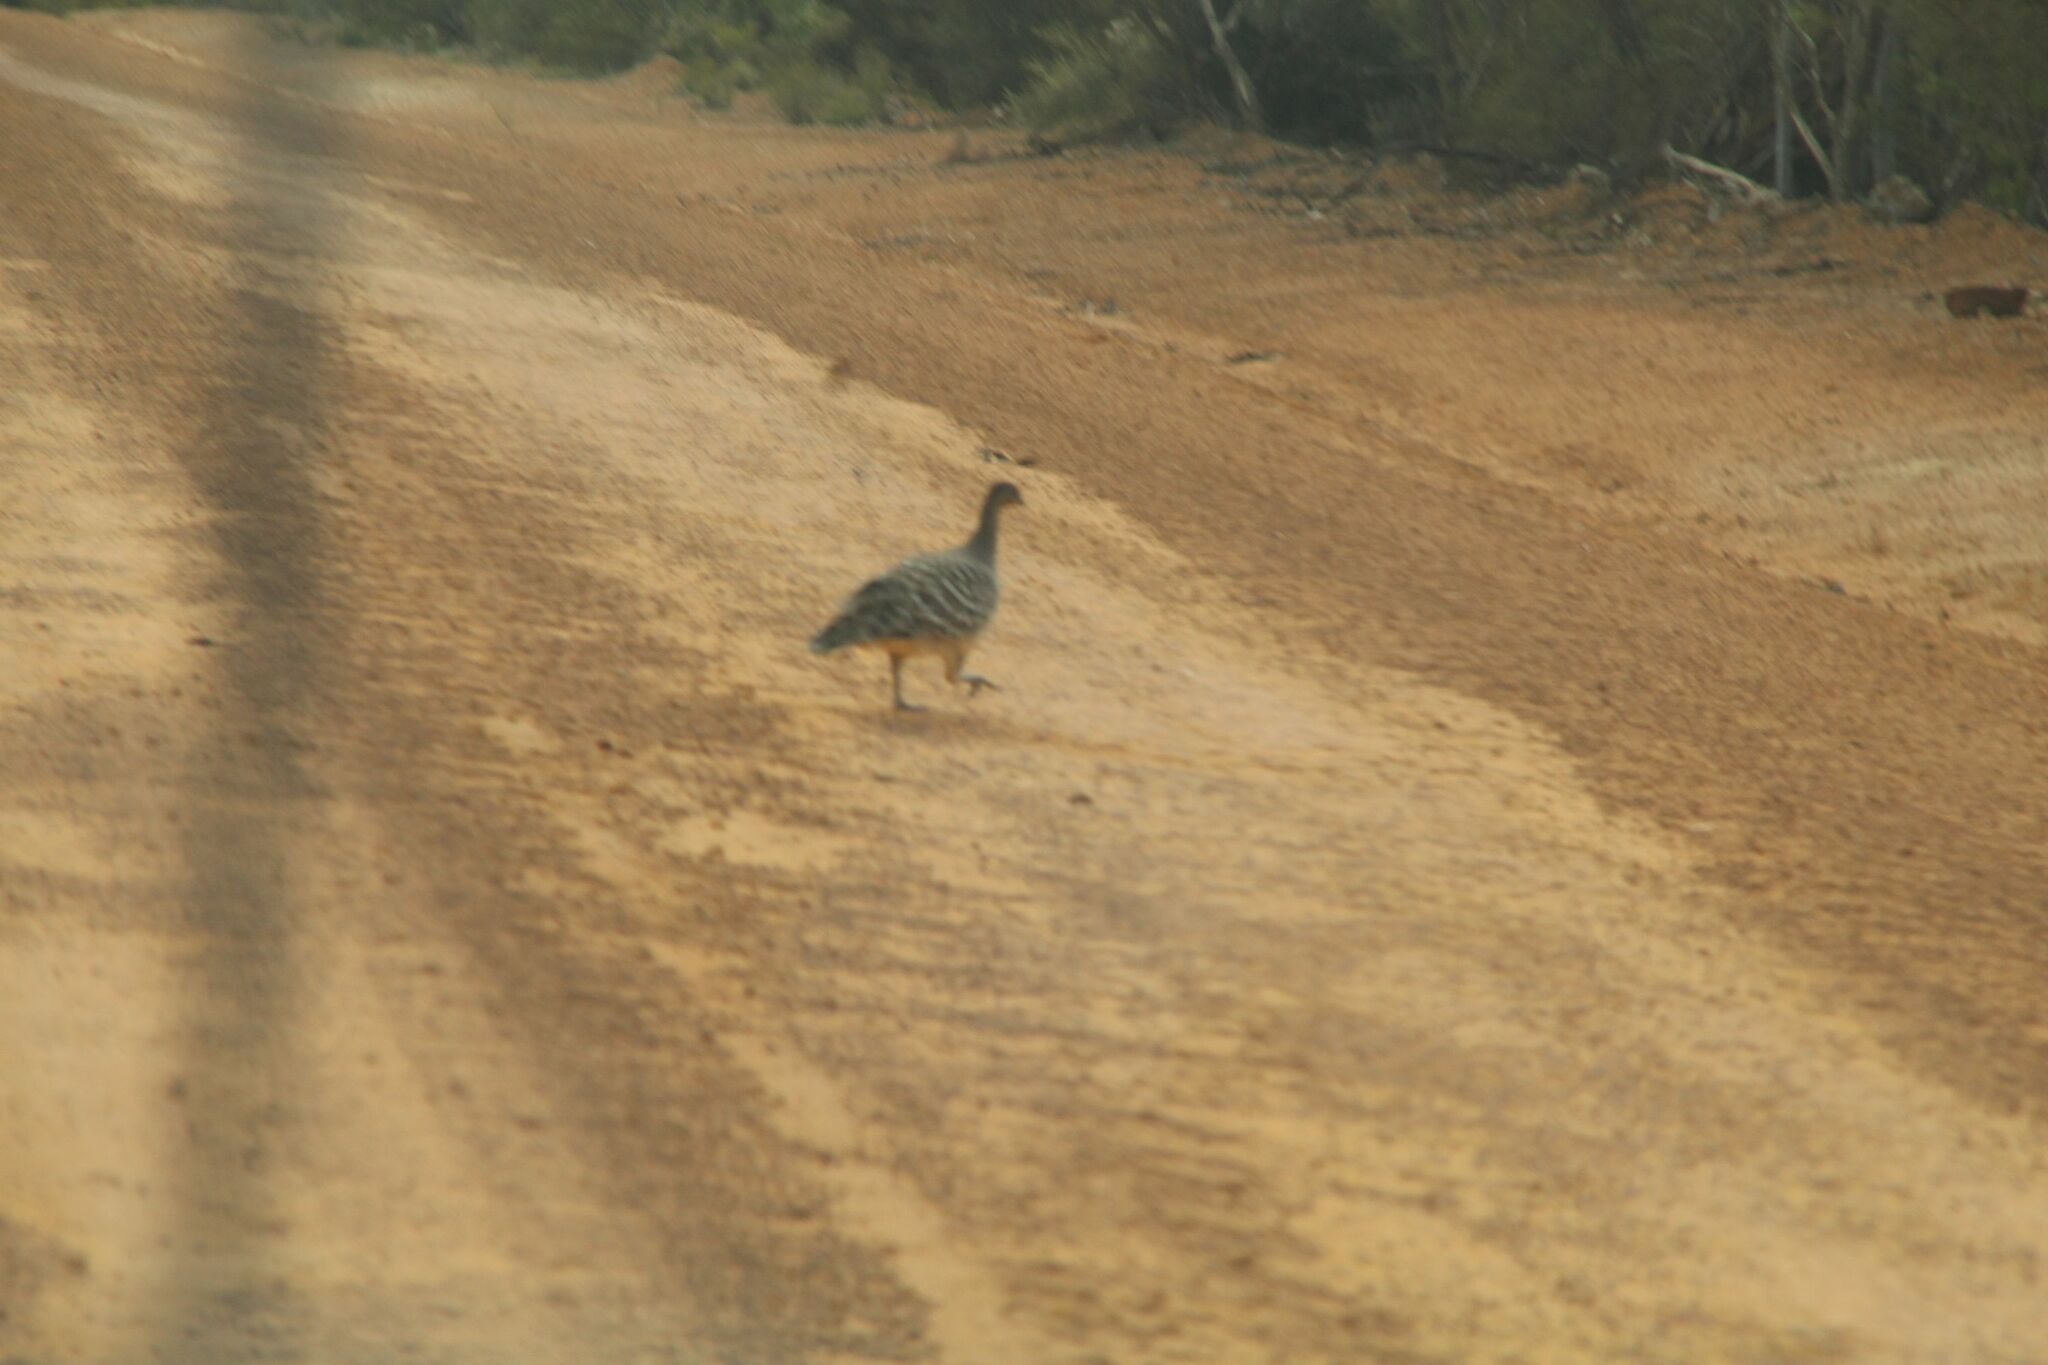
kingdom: Animalia
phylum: Chordata
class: Aves
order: Galliformes
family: Megapodiidae
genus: Leipoa
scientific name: Leipoa ocellata
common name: Malleefowl
